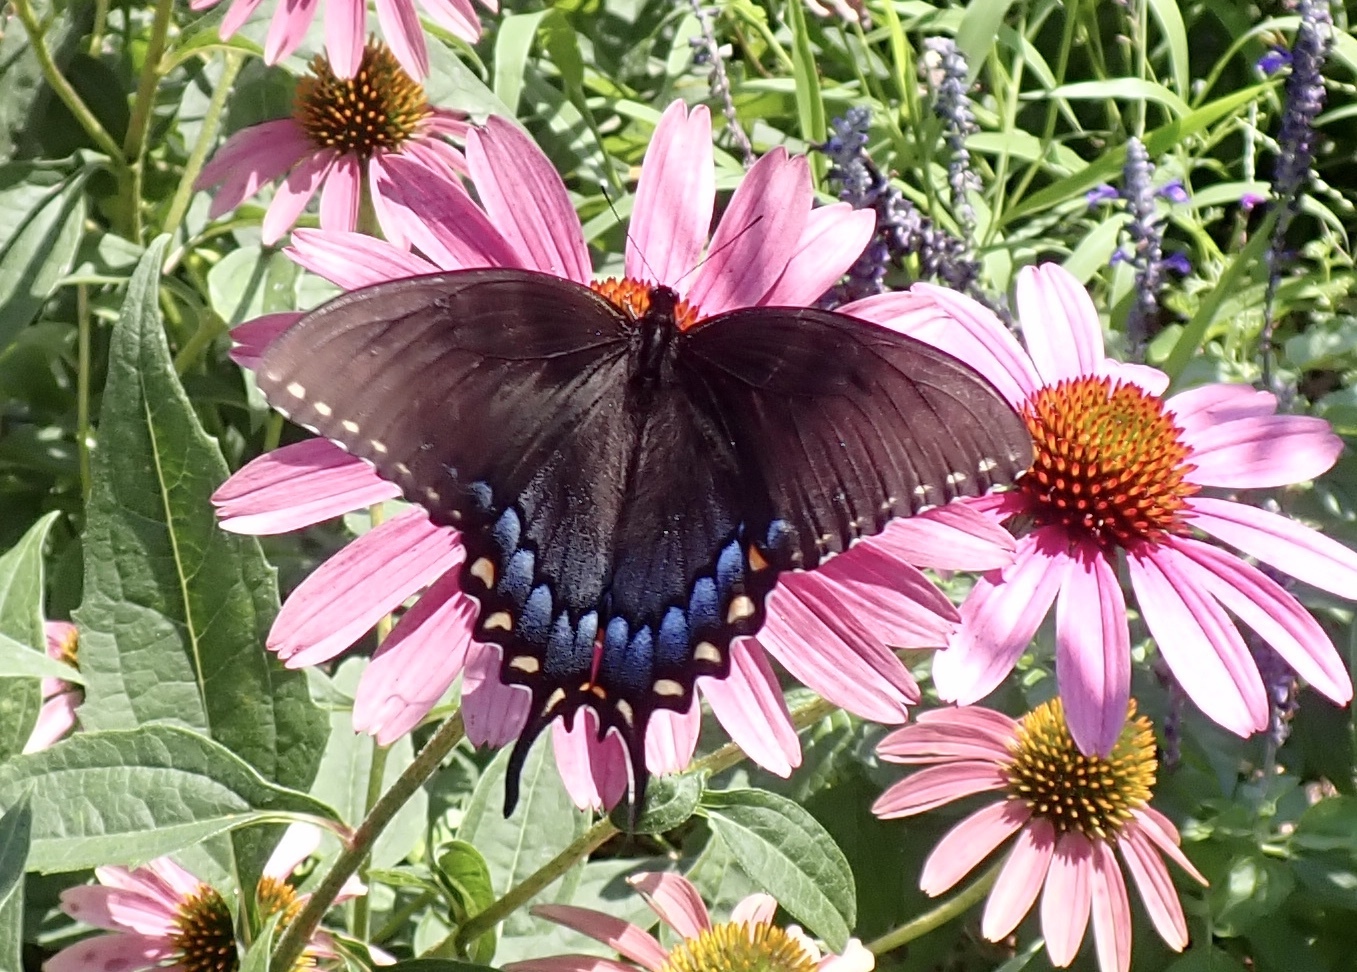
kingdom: Animalia
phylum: Arthropoda
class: Insecta
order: Lepidoptera
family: Papilionidae
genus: Papilio
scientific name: Papilio glaucus
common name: Tiger swallowtail
